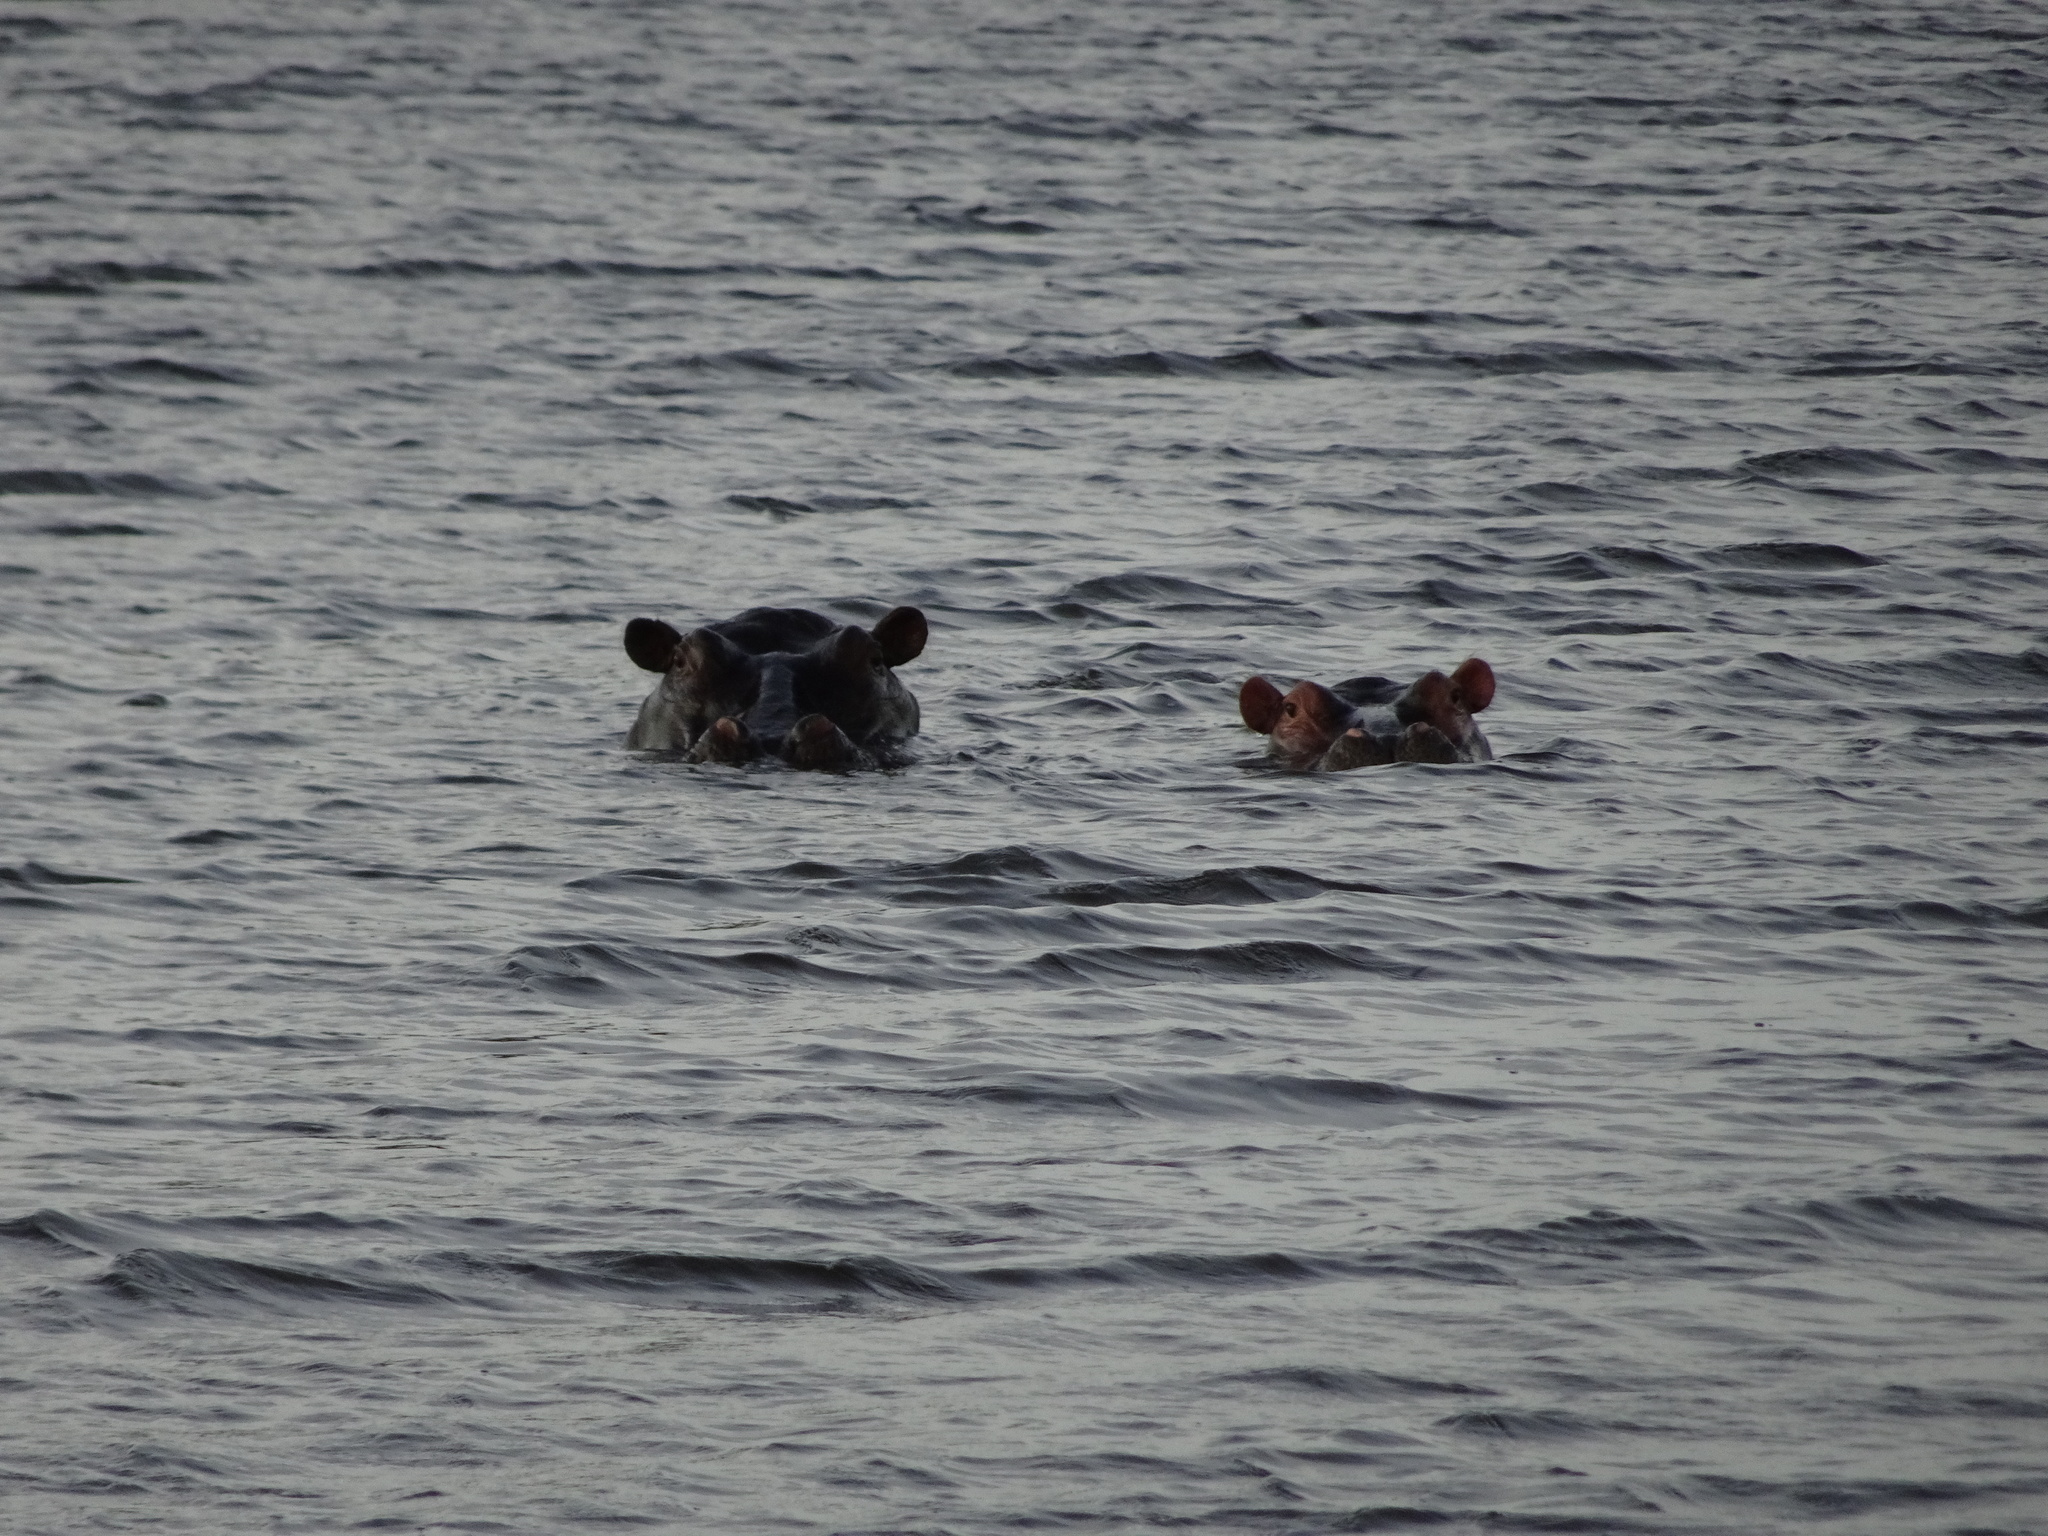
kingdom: Animalia
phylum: Chordata
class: Mammalia
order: Artiodactyla
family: Hippopotamidae
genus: Hippopotamus
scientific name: Hippopotamus amphibius
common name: Common hippopotamus
